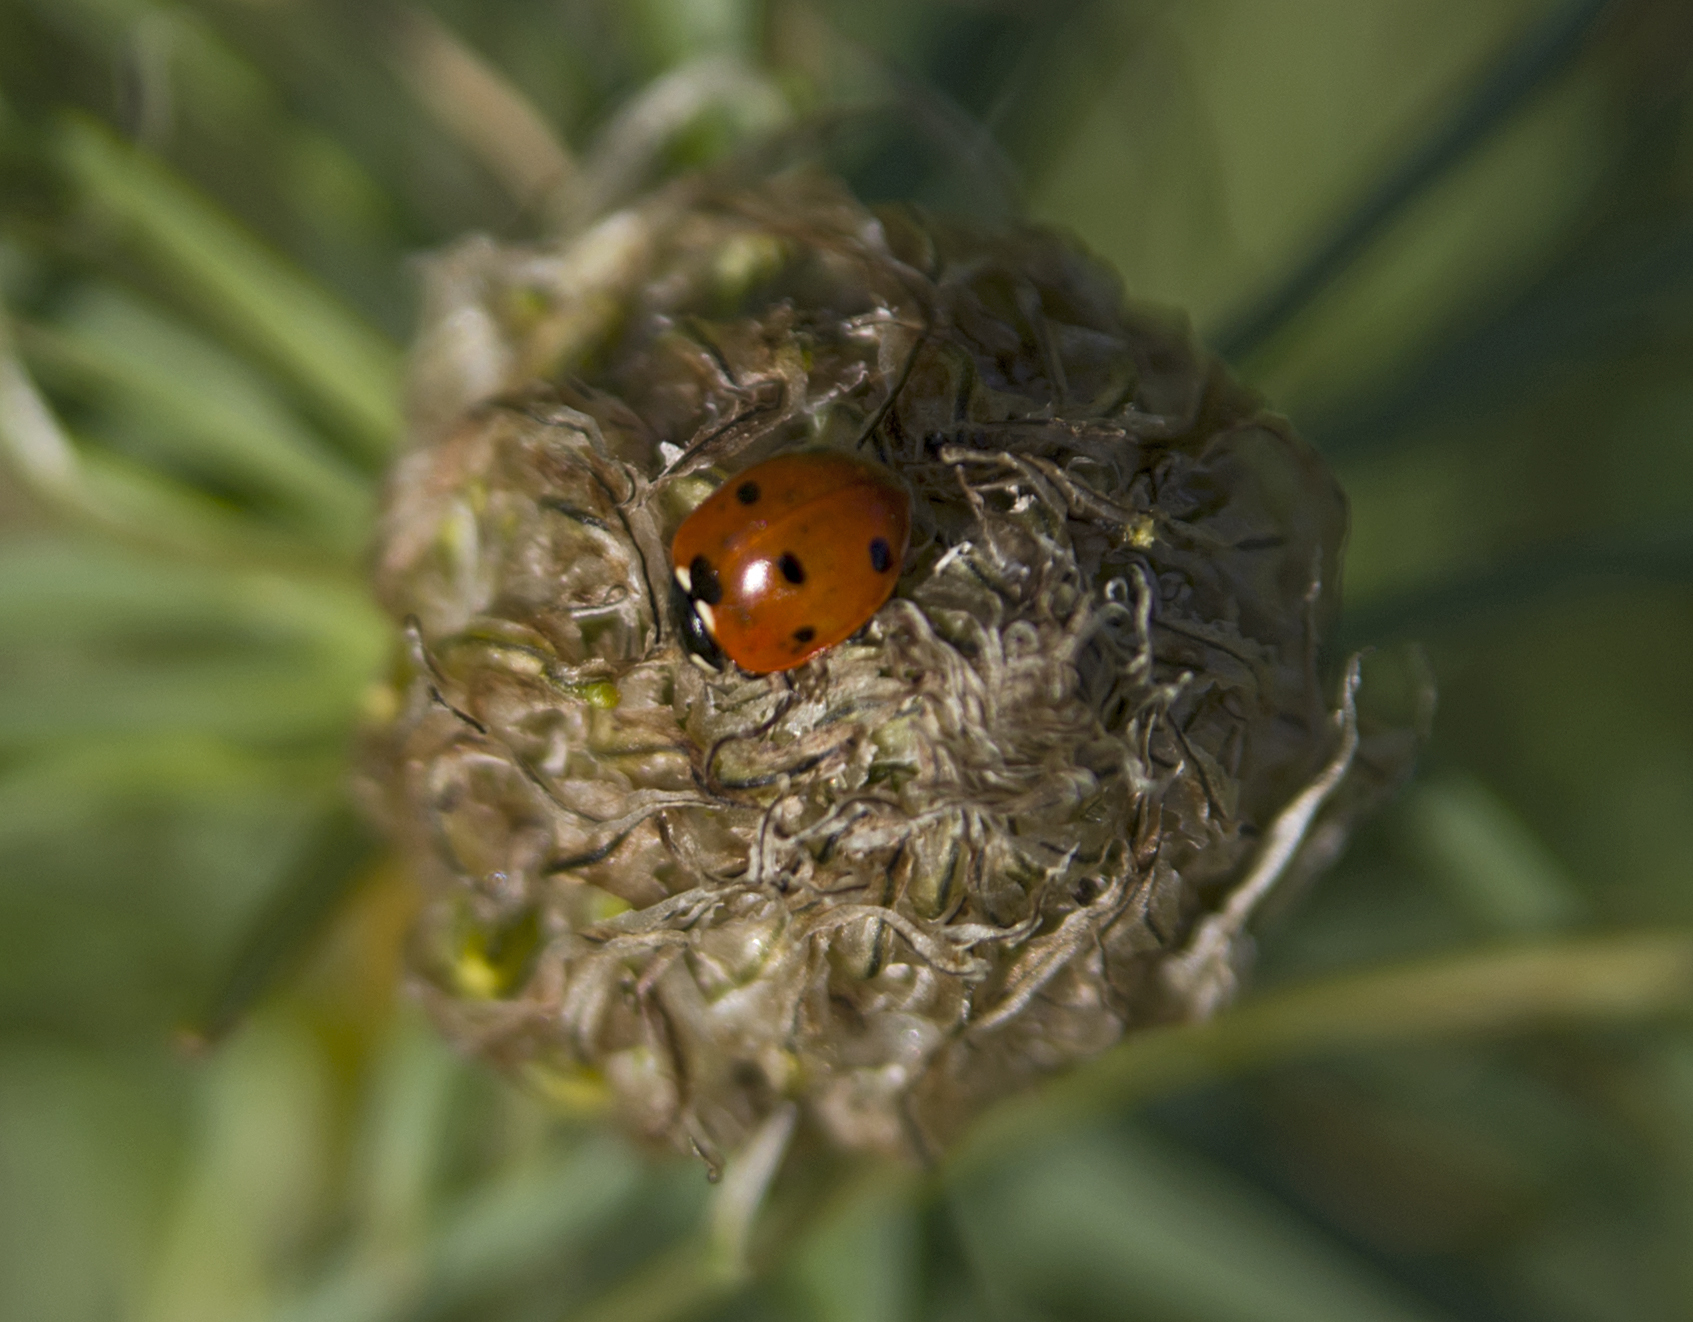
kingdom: Animalia
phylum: Arthropoda
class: Insecta
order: Coleoptera
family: Coccinellidae
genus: Coccinella
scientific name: Coccinella septempunctata
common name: Sevenspotted lady beetle
